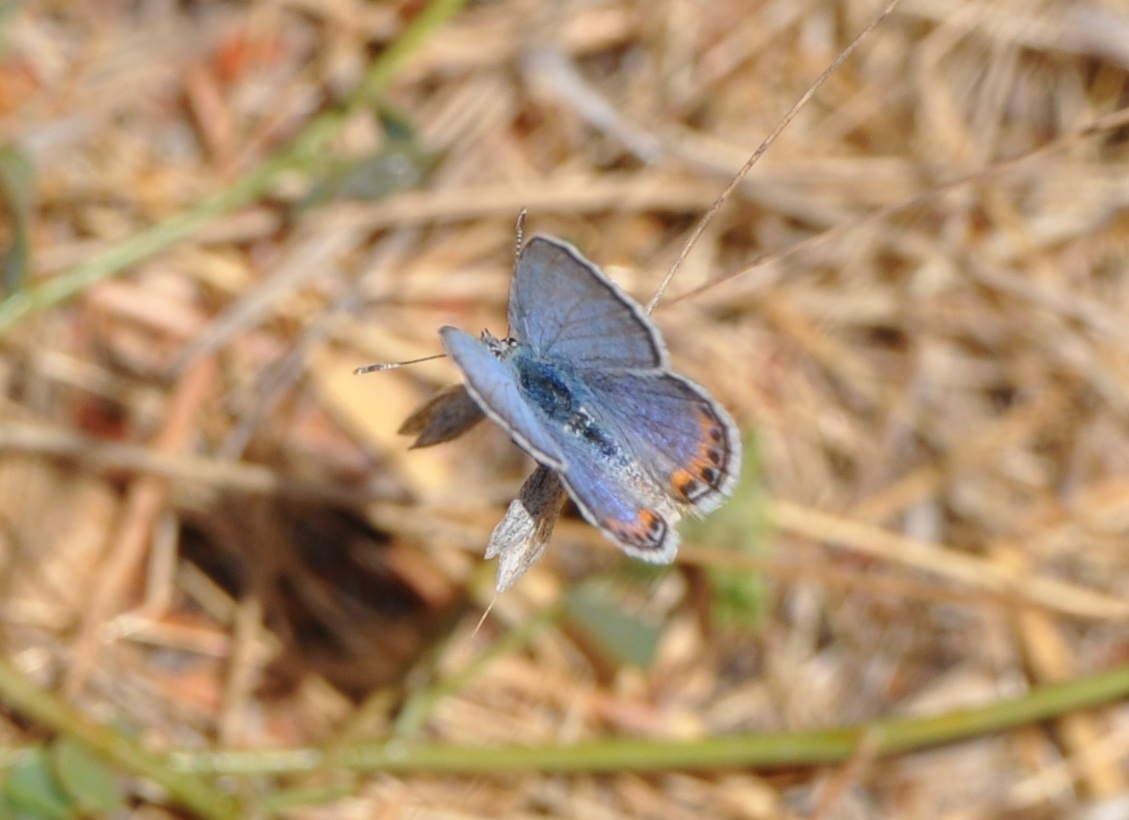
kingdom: Animalia
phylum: Arthropoda
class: Insecta
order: Lepidoptera
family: Lycaenidae
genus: Icaricia
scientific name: Icaricia acmon
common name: Acmon blue
